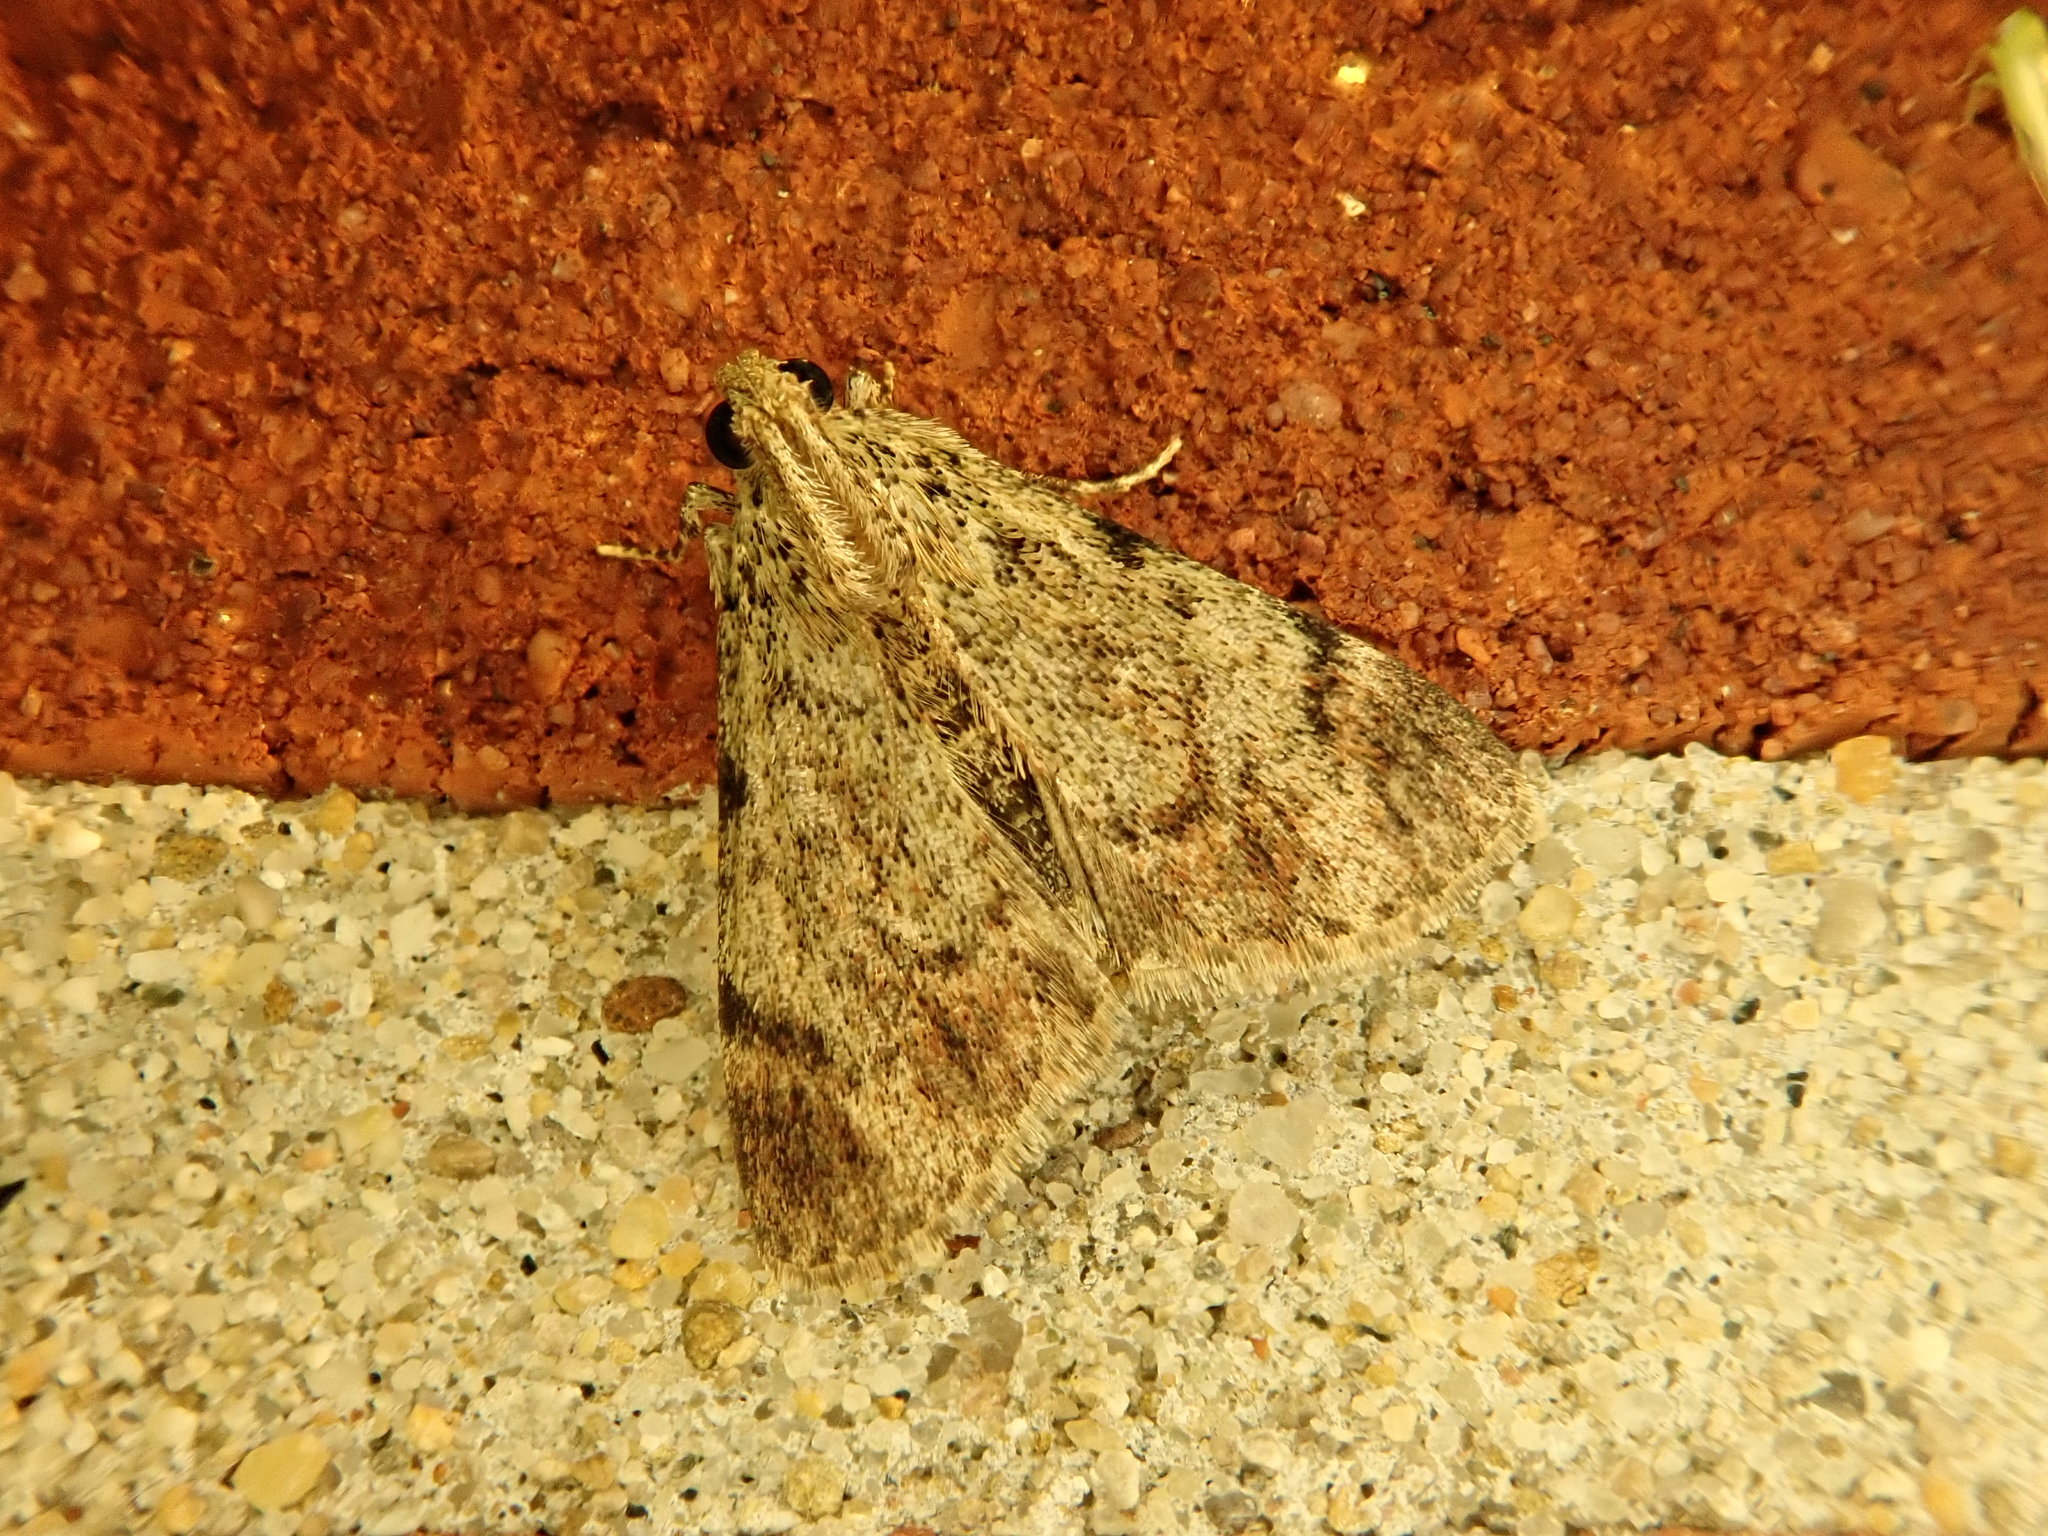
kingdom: Animalia
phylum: Arthropoda
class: Insecta
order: Lepidoptera
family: Pyralidae
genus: Epipaschia
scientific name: Epipaschia superatalis
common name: Dimorphic macalla moth
